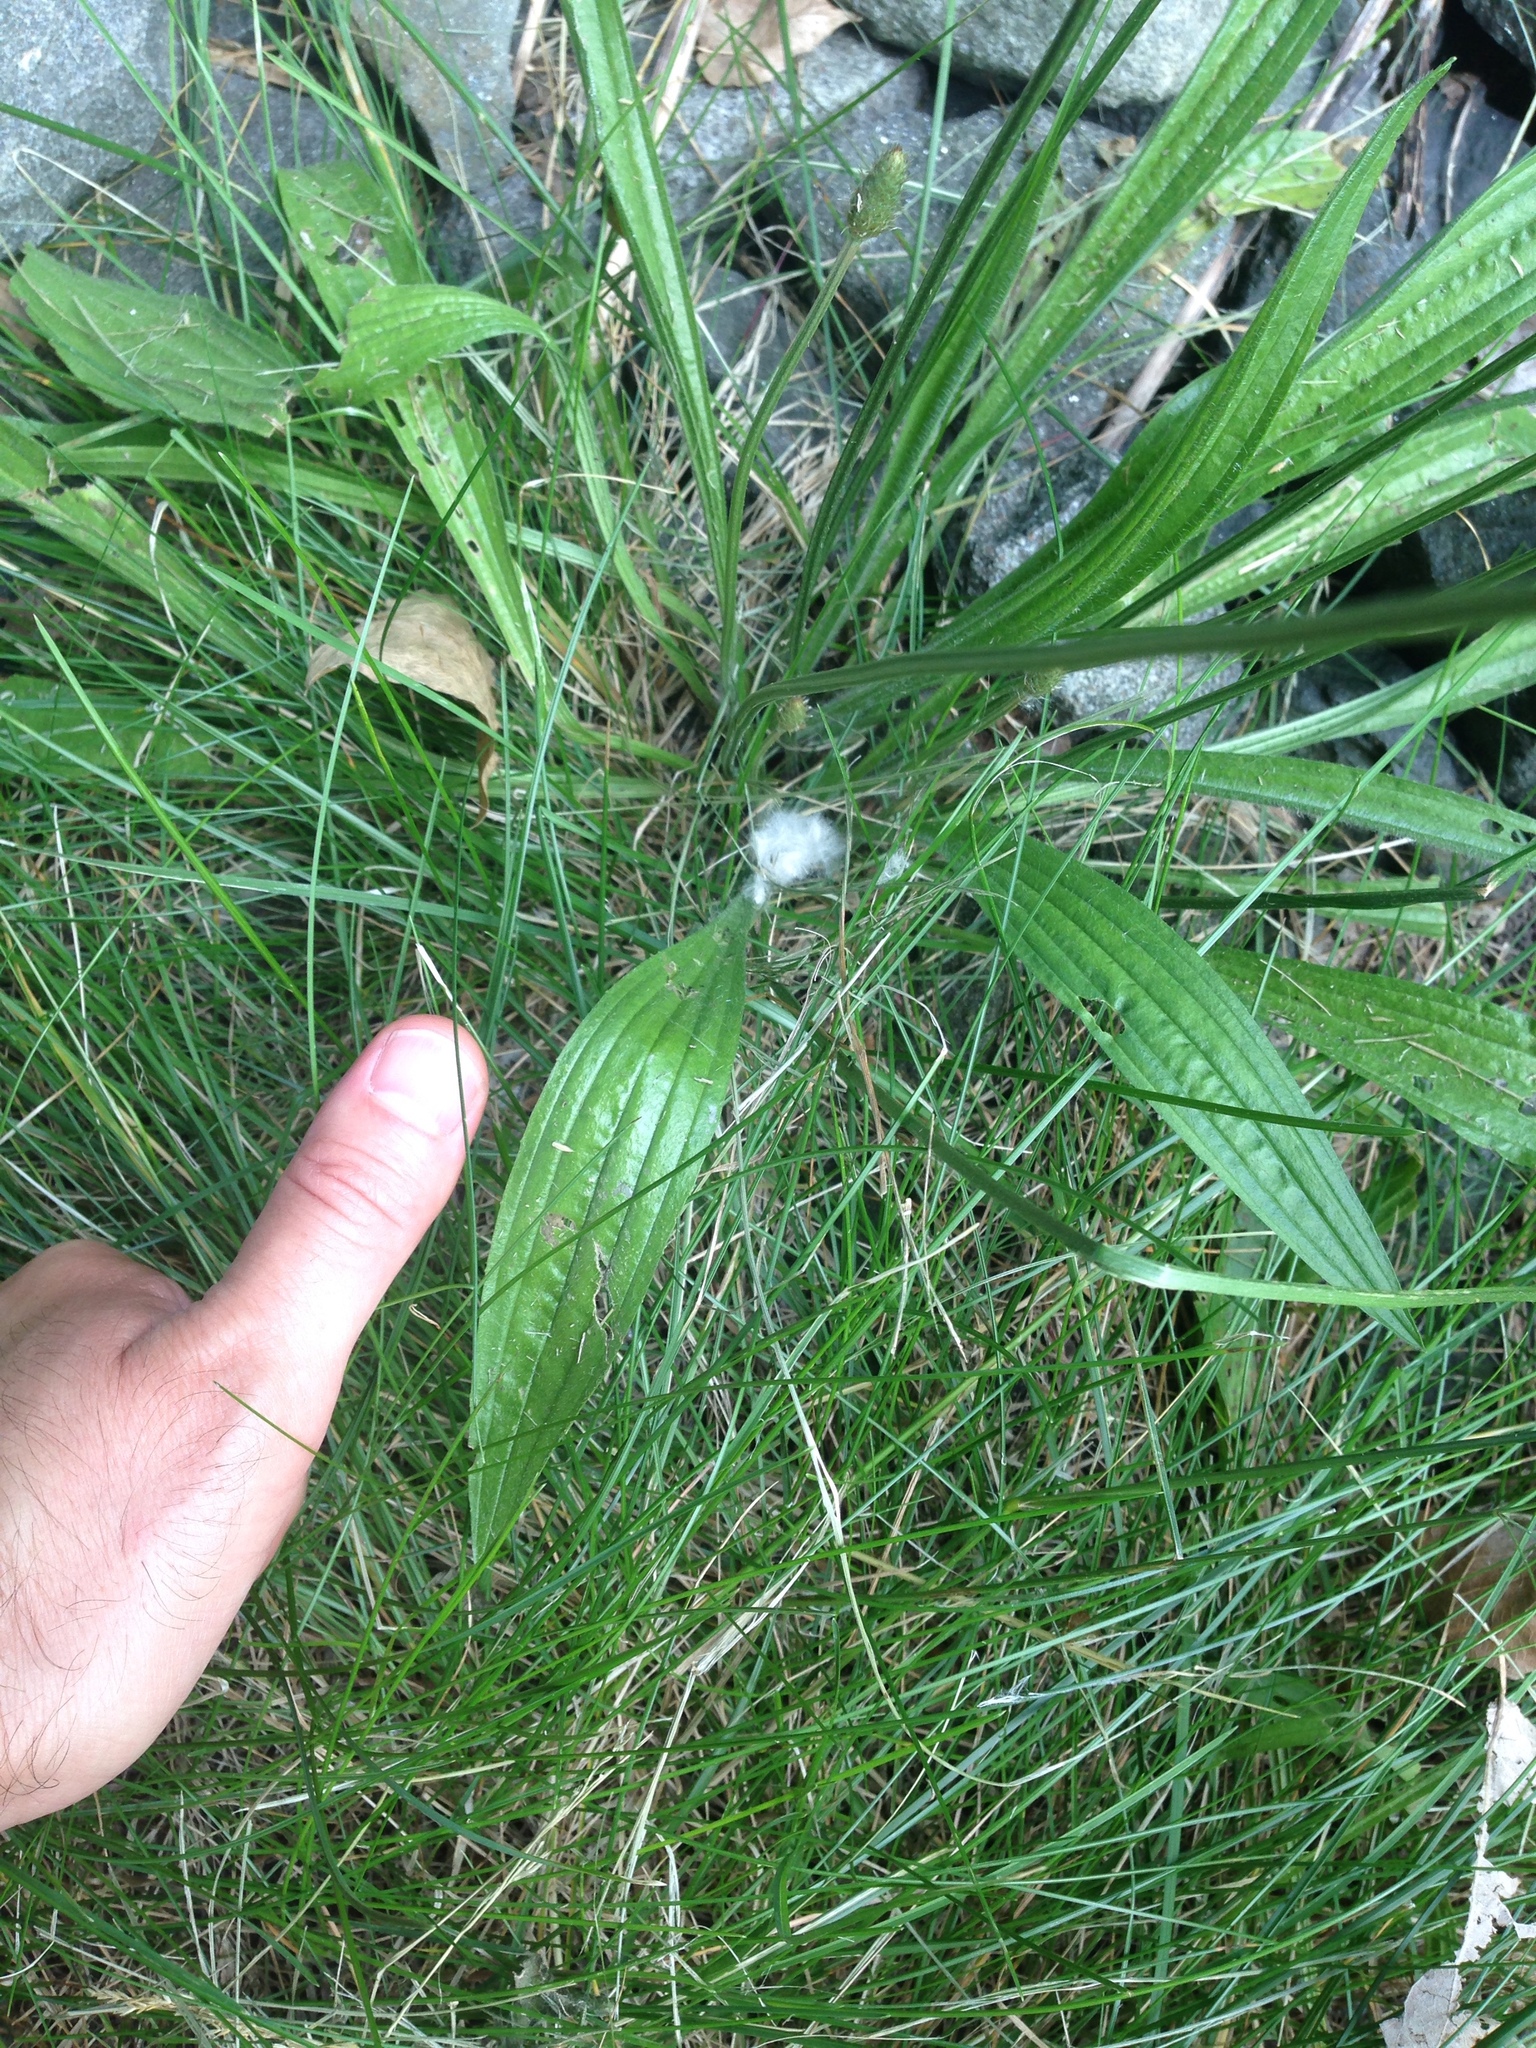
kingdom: Plantae
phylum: Tracheophyta
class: Magnoliopsida
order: Lamiales
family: Plantaginaceae
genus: Plantago
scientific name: Plantago lanceolata
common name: Ribwort plantain
